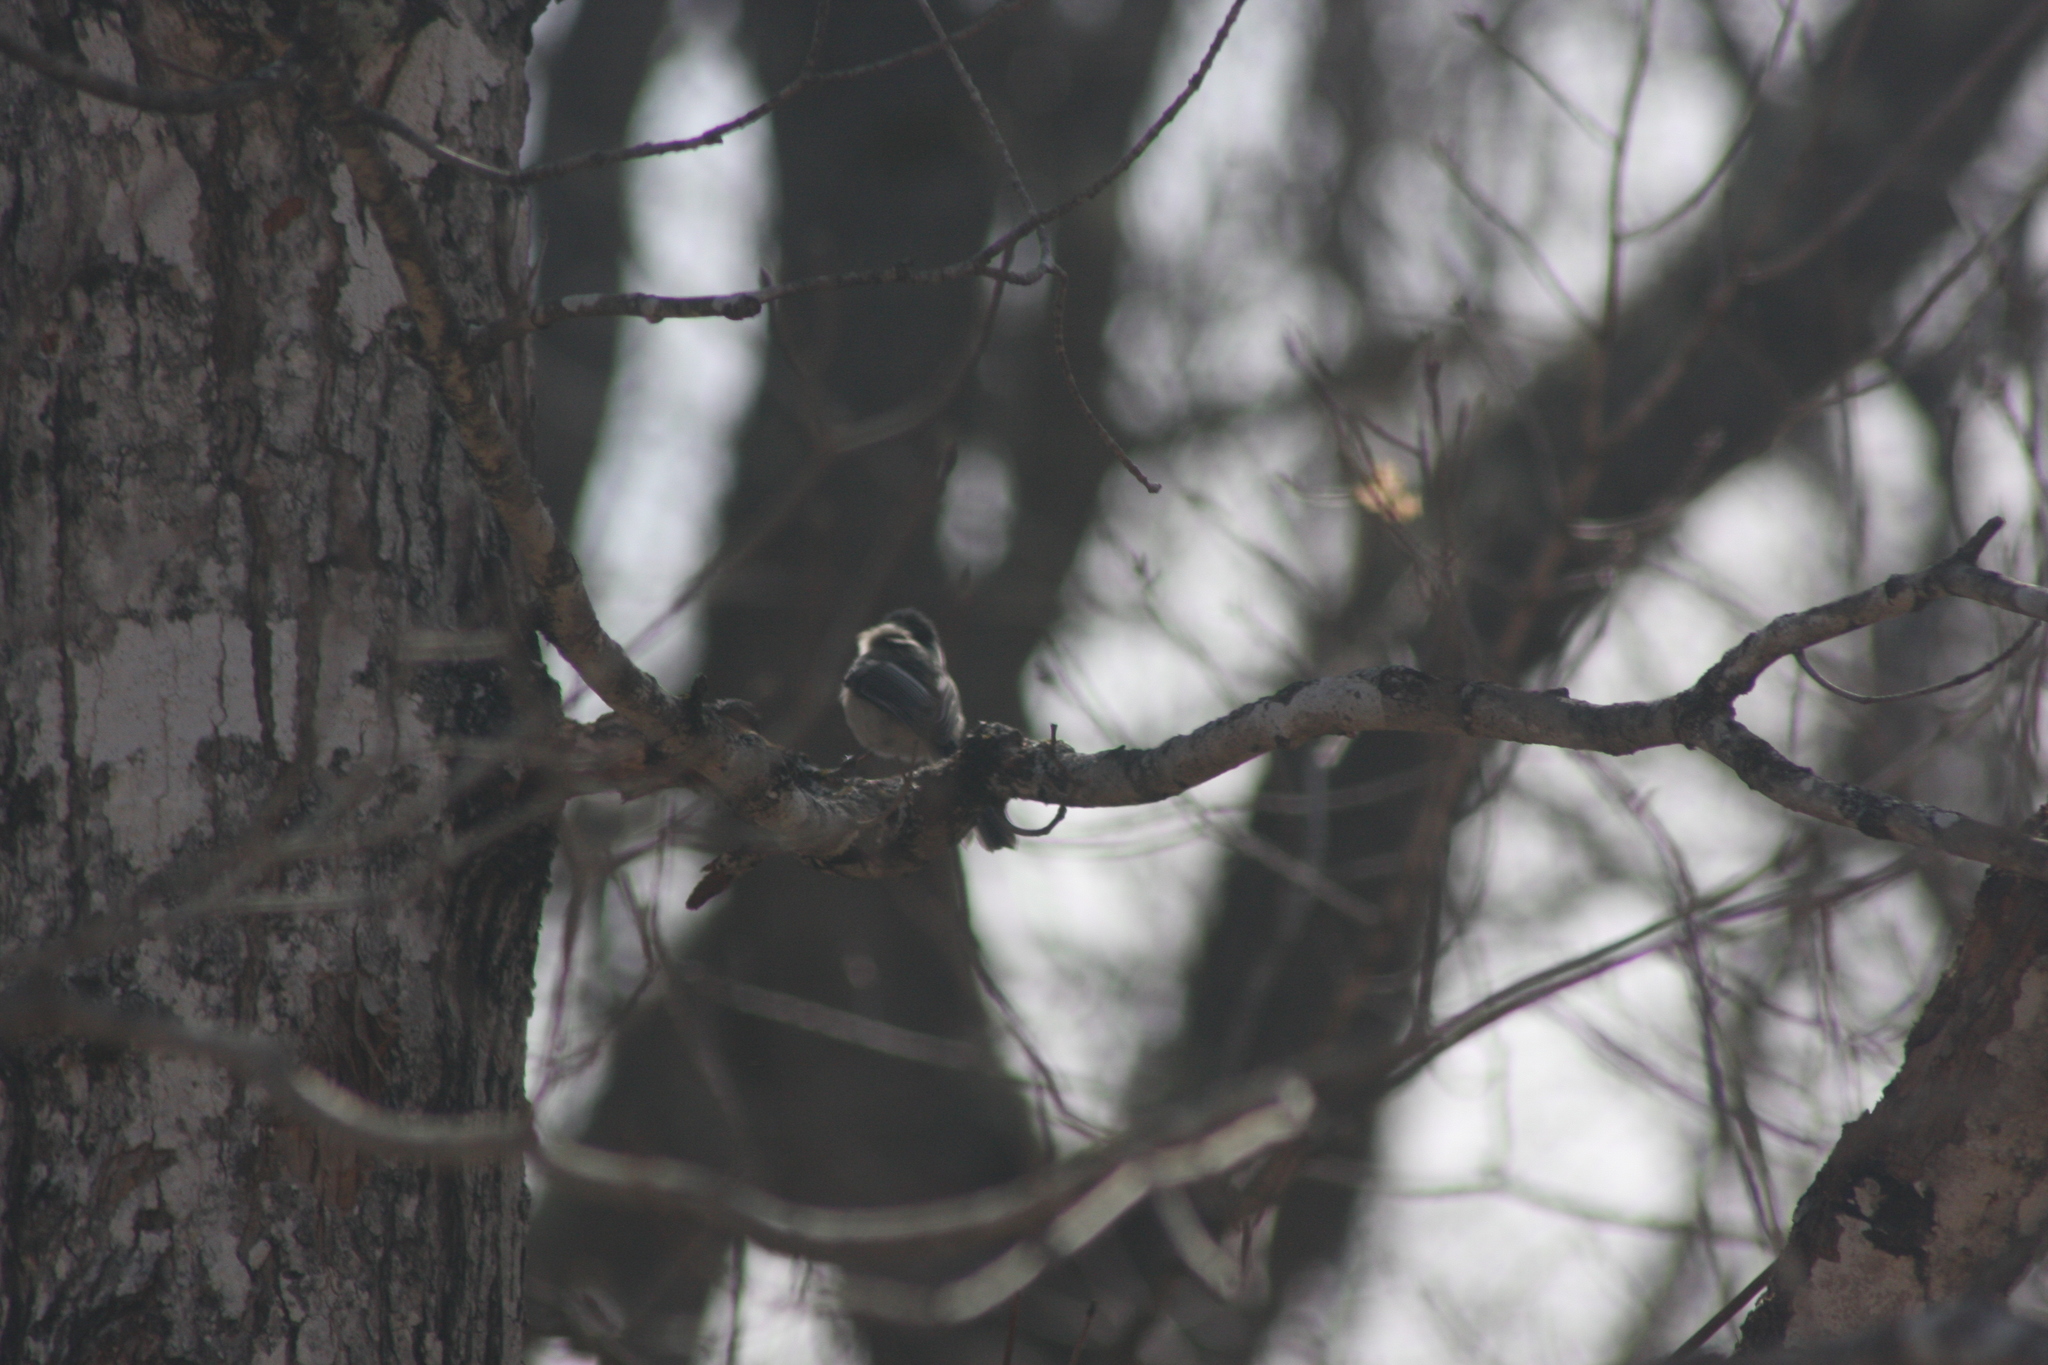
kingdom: Animalia
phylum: Chordata
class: Aves
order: Passeriformes
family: Paridae
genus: Poecile
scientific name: Poecile atricapillus
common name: Black-capped chickadee
